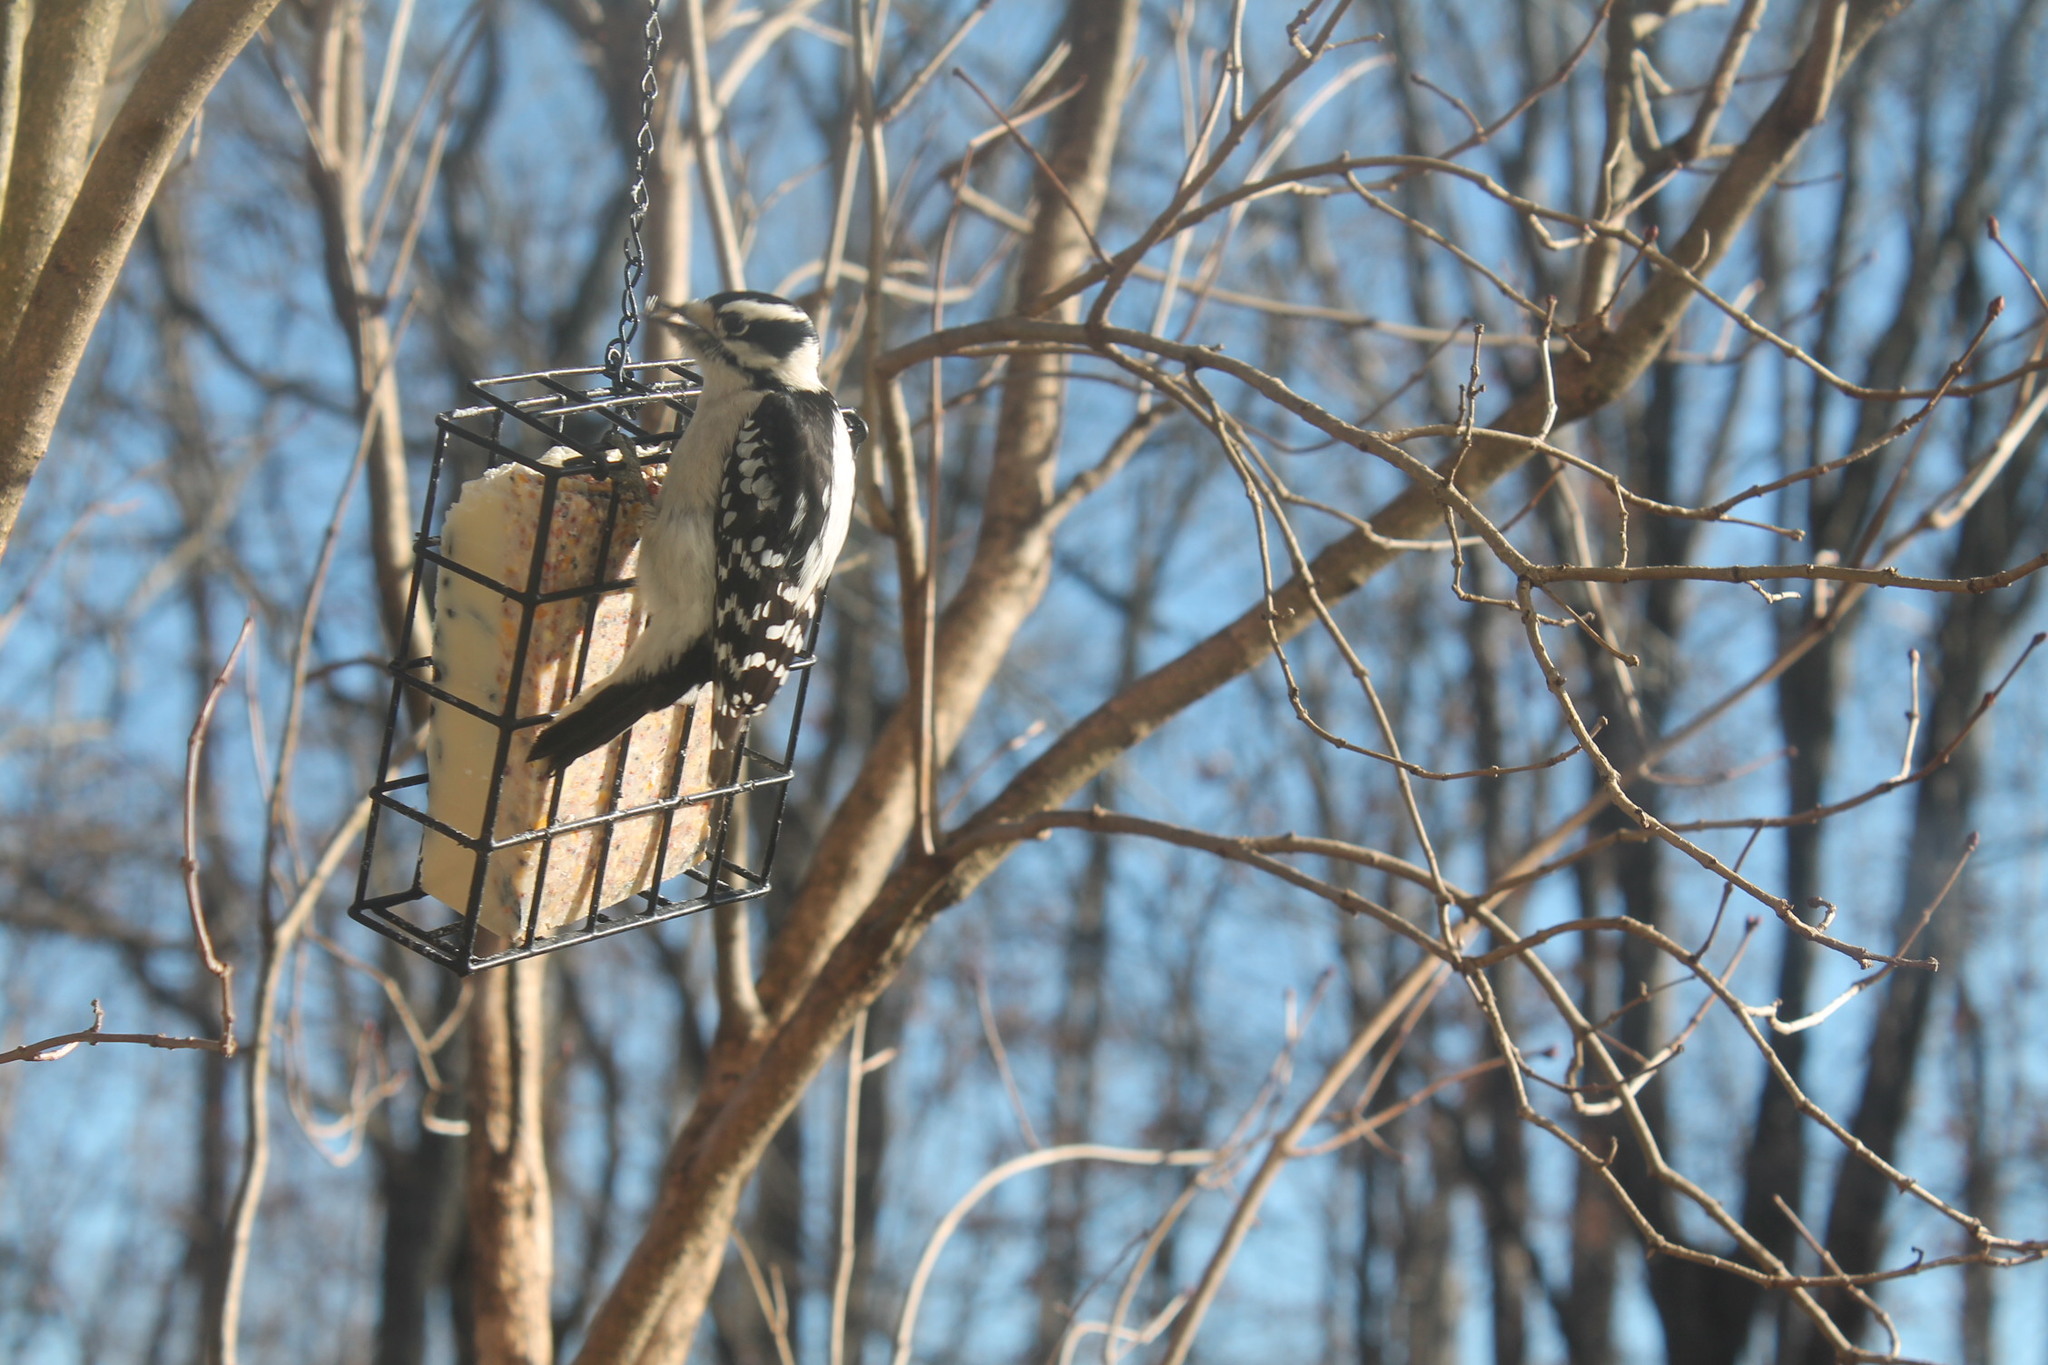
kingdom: Animalia
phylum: Chordata
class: Aves
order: Piciformes
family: Picidae
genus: Dryobates
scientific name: Dryobates pubescens
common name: Downy woodpecker
